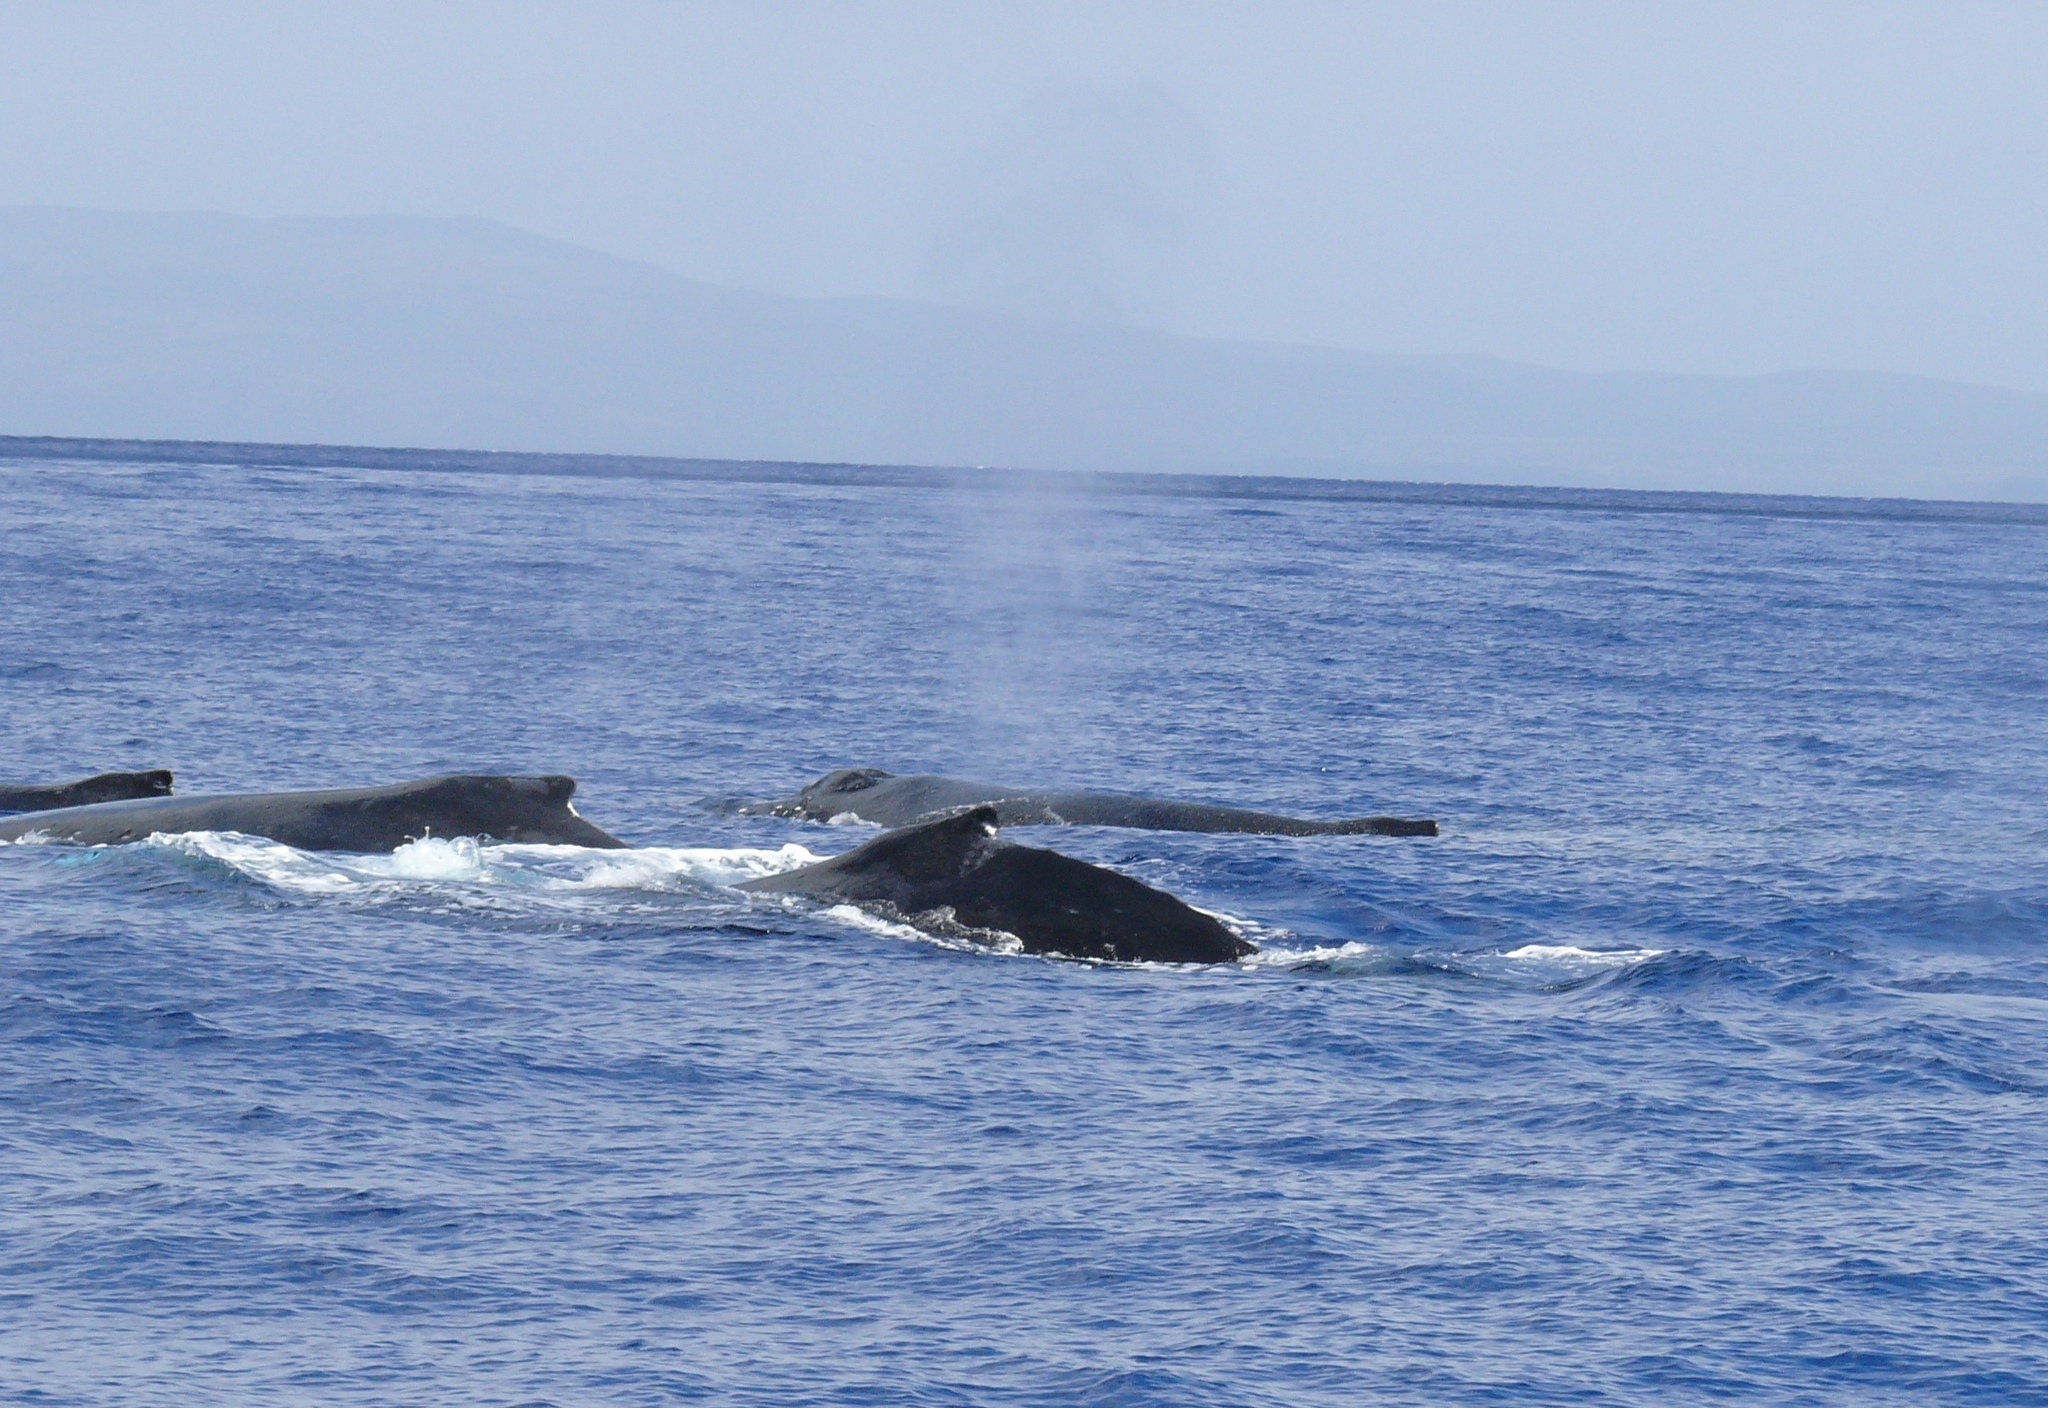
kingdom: Animalia
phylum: Chordata
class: Mammalia
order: Cetacea
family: Balaenopteridae
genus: Megaptera
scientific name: Megaptera novaeangliae
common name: Humpback whale
